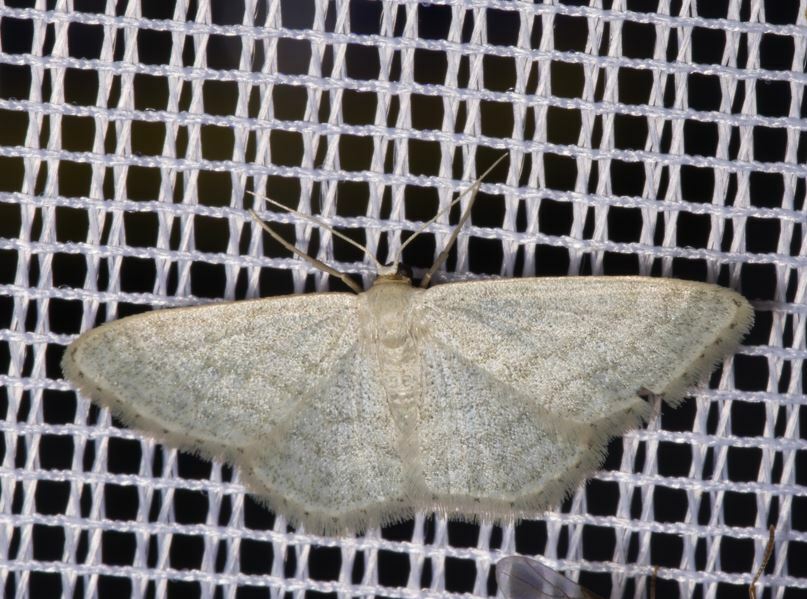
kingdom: Animalia
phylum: Arthropoda
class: Insecta
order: Lepidoptera
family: Geometridae
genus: Idaea
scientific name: Idaea subsericeata
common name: Satin wave
